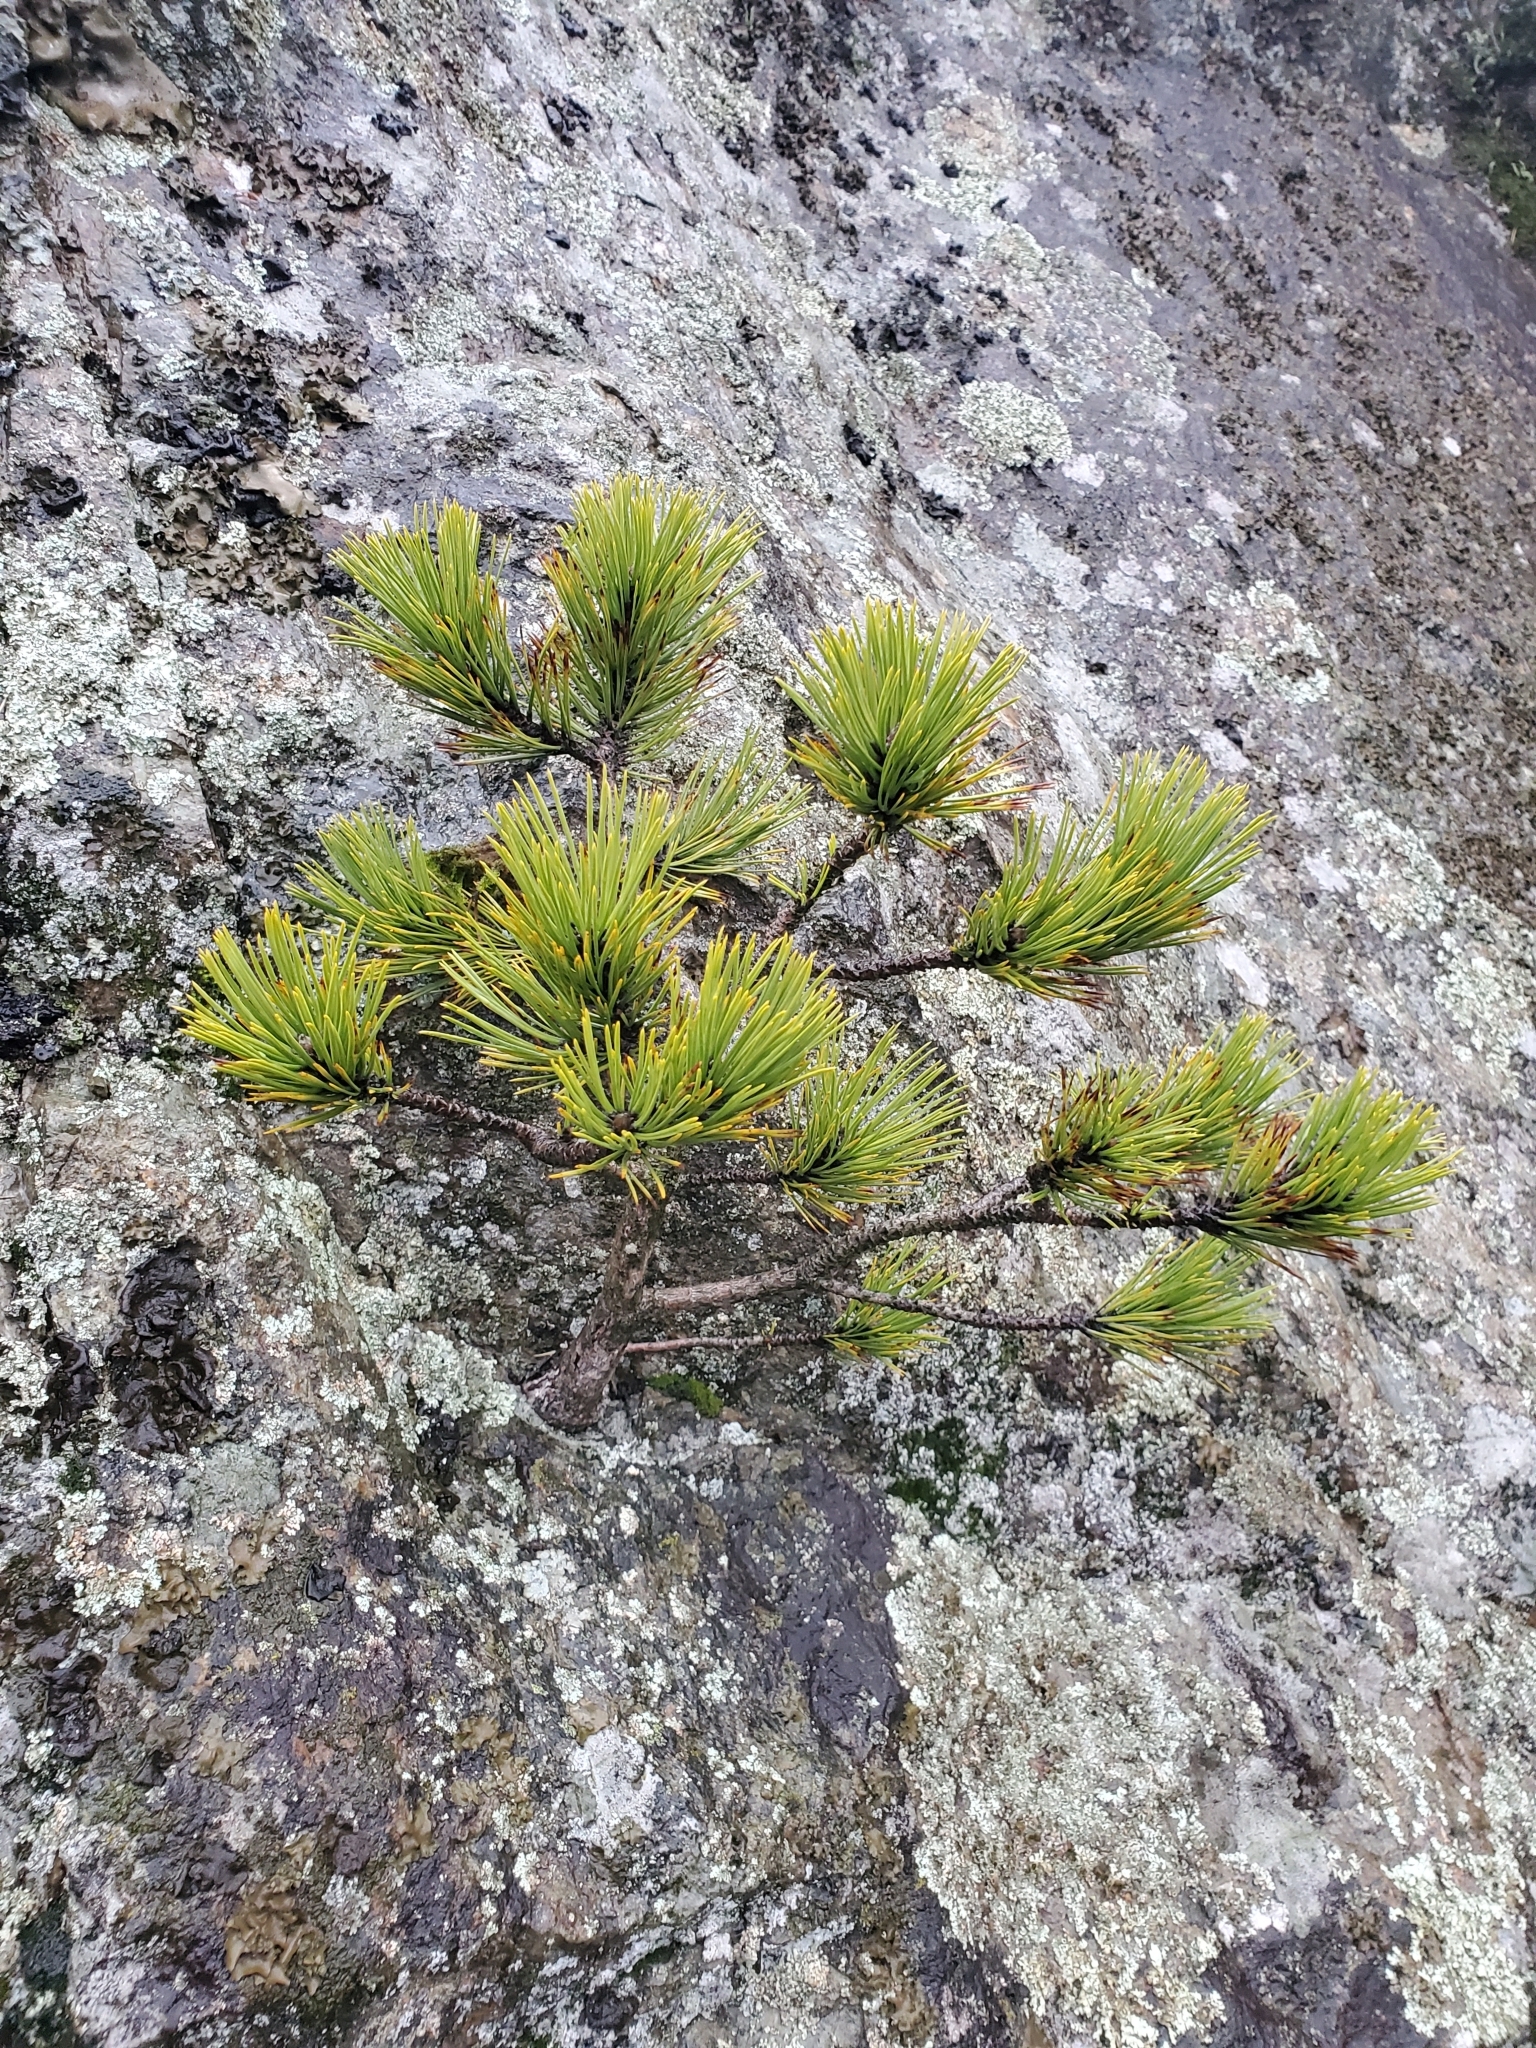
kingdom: Plantae
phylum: Tracheophyta
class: Pinopsida
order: Pinales
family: Pinaceae
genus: Pinus
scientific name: Pinus contorta
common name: Lodgepole pine
